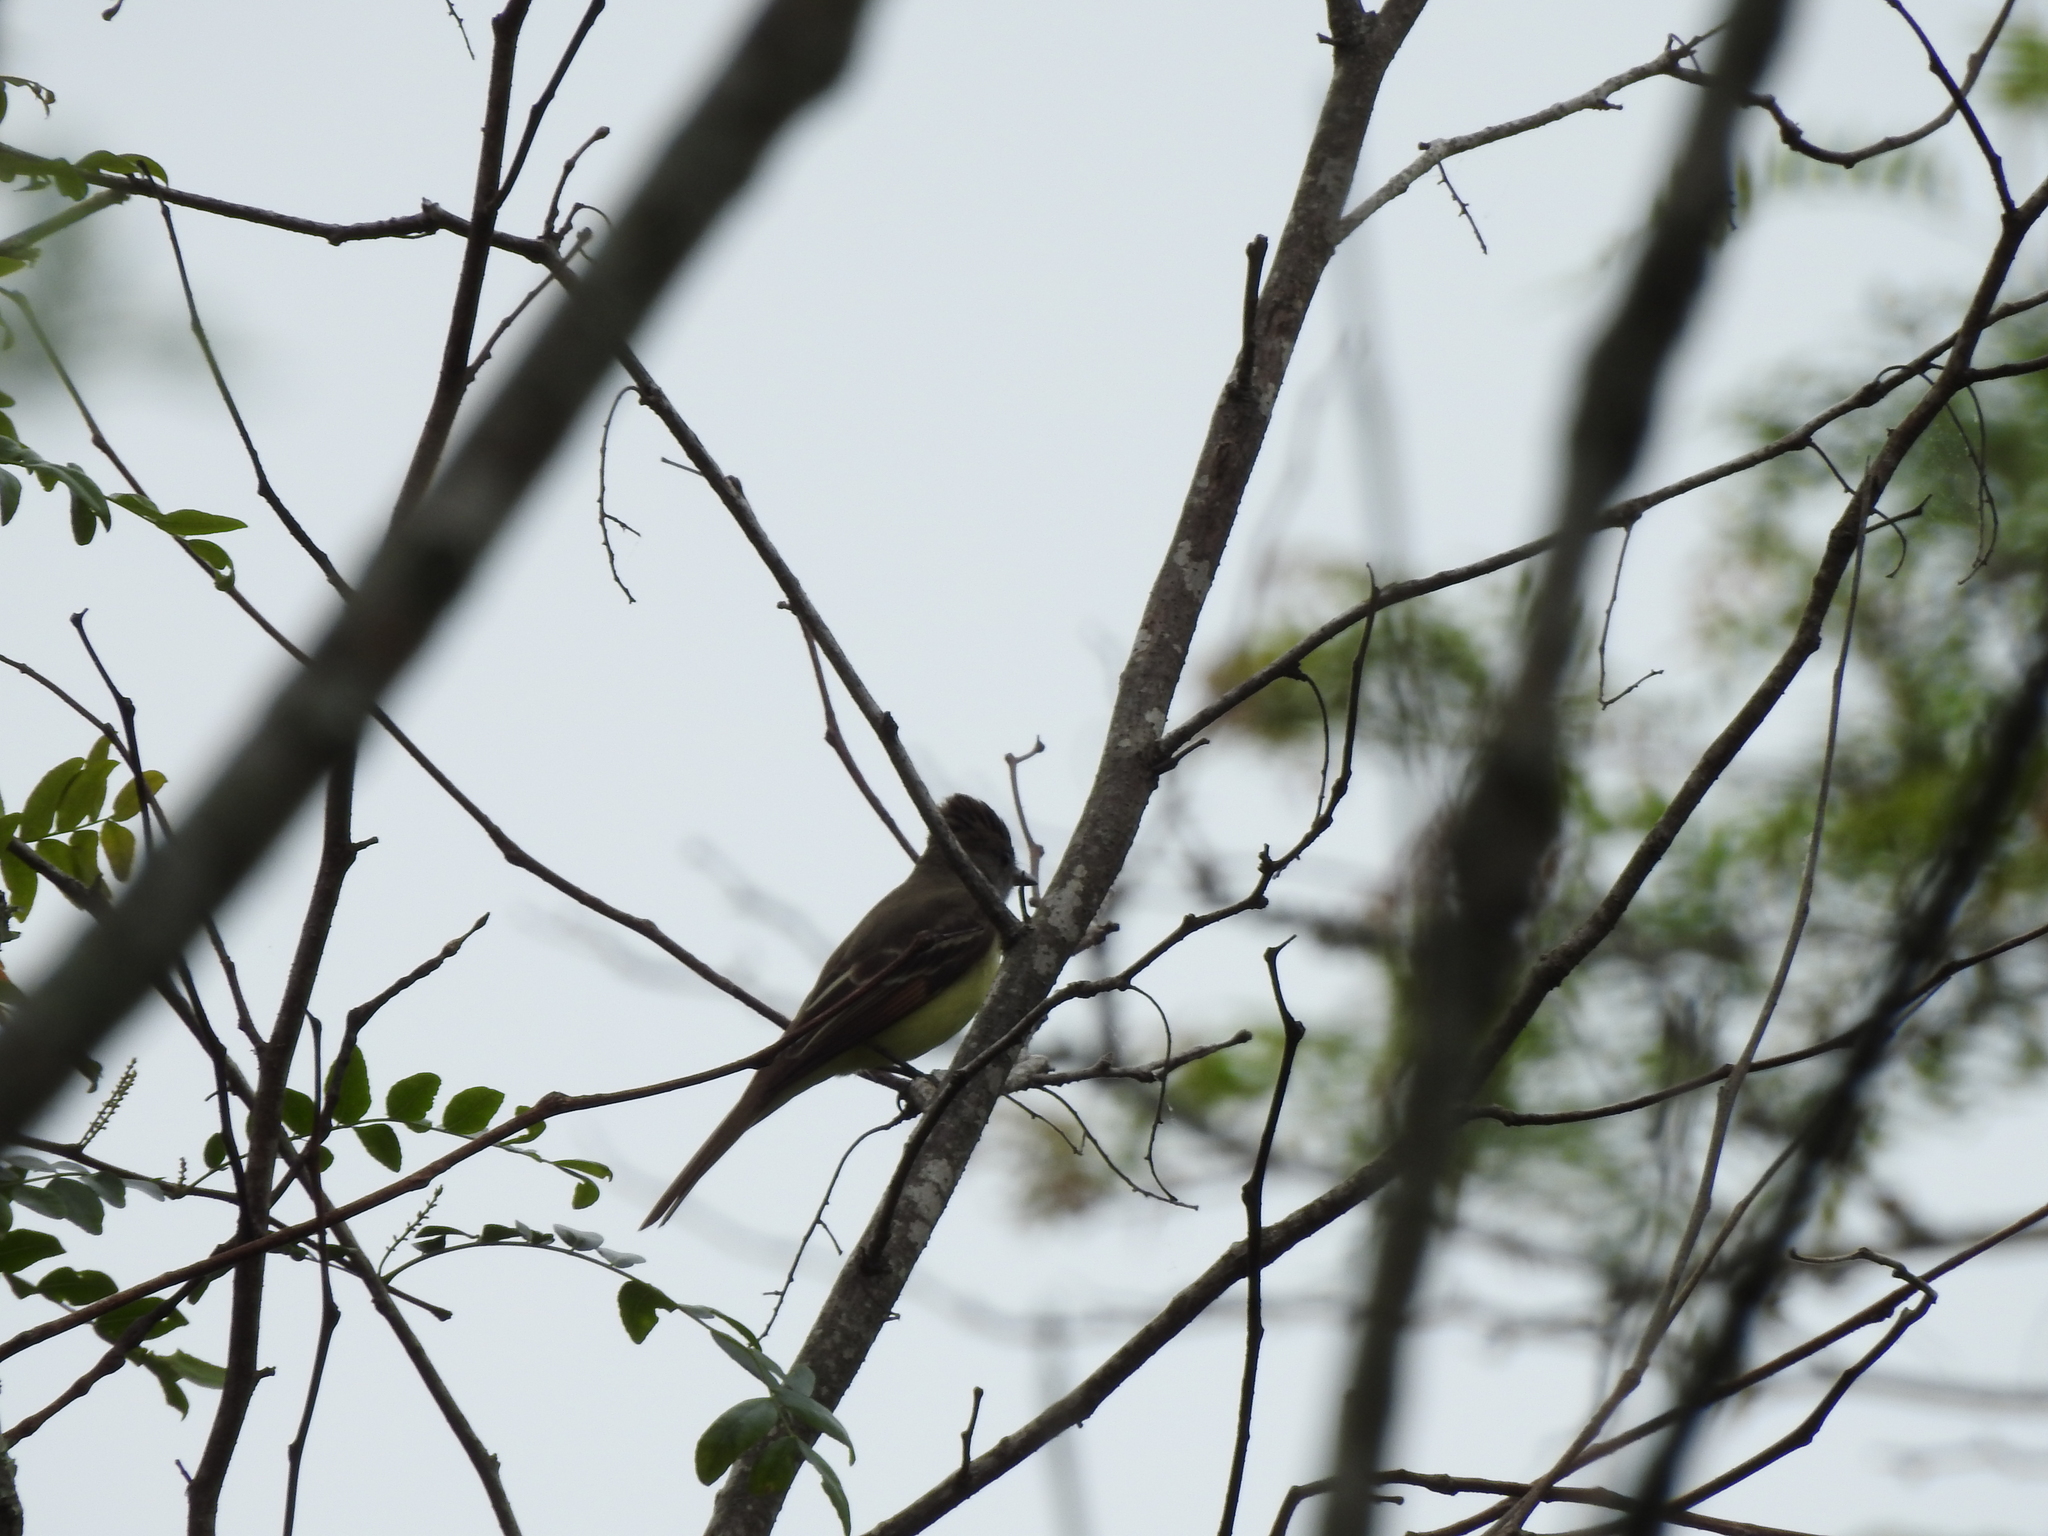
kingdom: Animalia
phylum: Chordata
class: Aves
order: Passeriformes
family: Tyrannidae
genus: Myiarchus
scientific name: Myiarchus crinitus
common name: Great crested flycatcher
